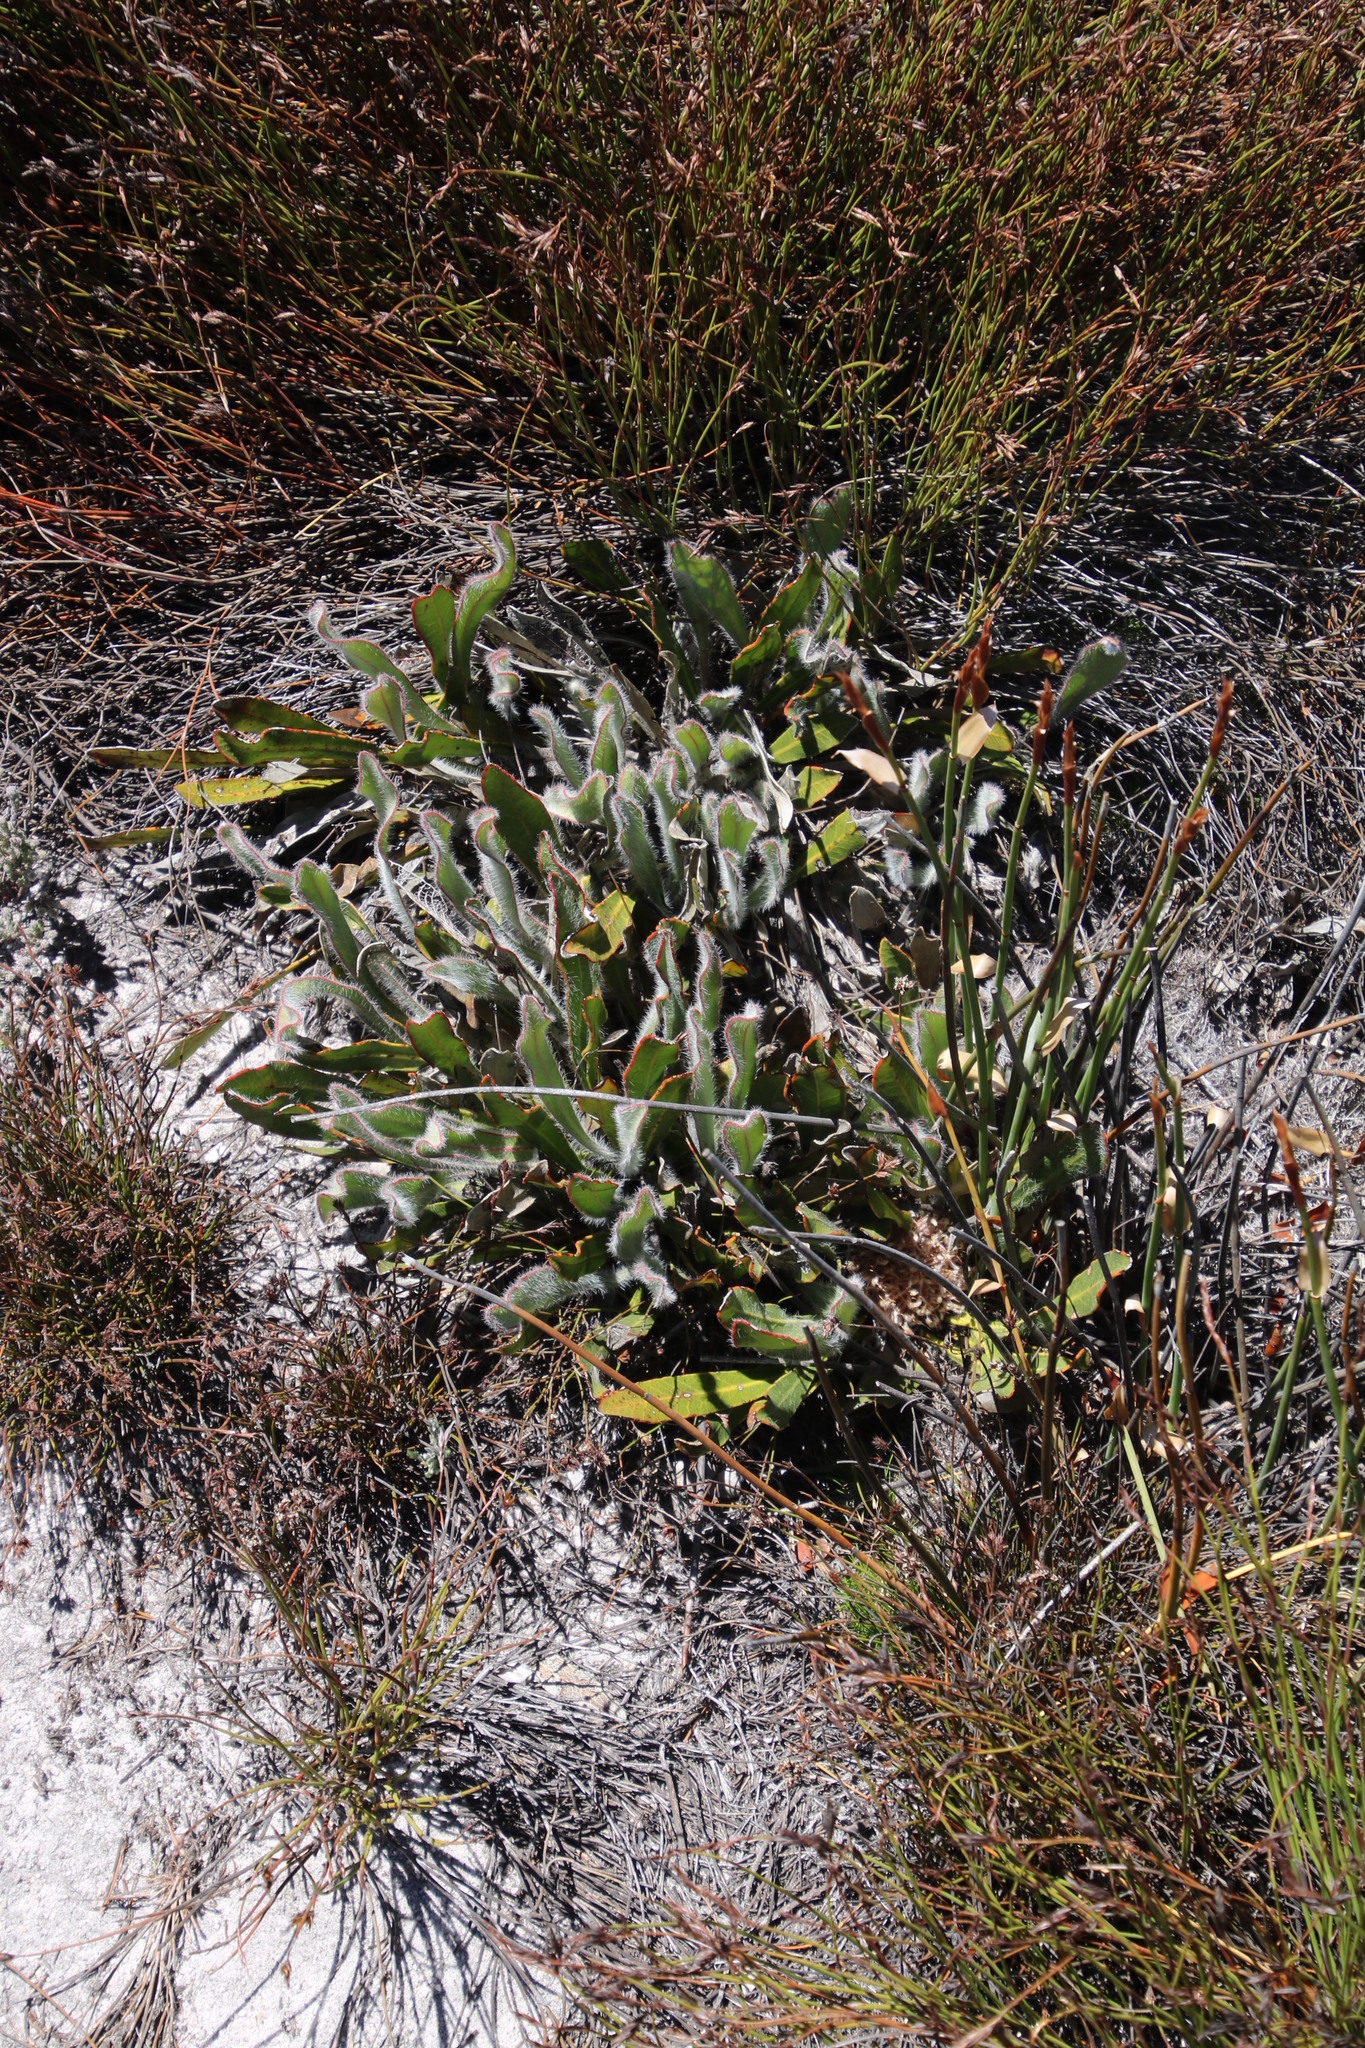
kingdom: Plantae
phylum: Tracheophyta
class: Magnoliopsida
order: Proteales
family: Proteaceae
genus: Protea
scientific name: Protea laevis
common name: Smooth-leaf sugarbush
